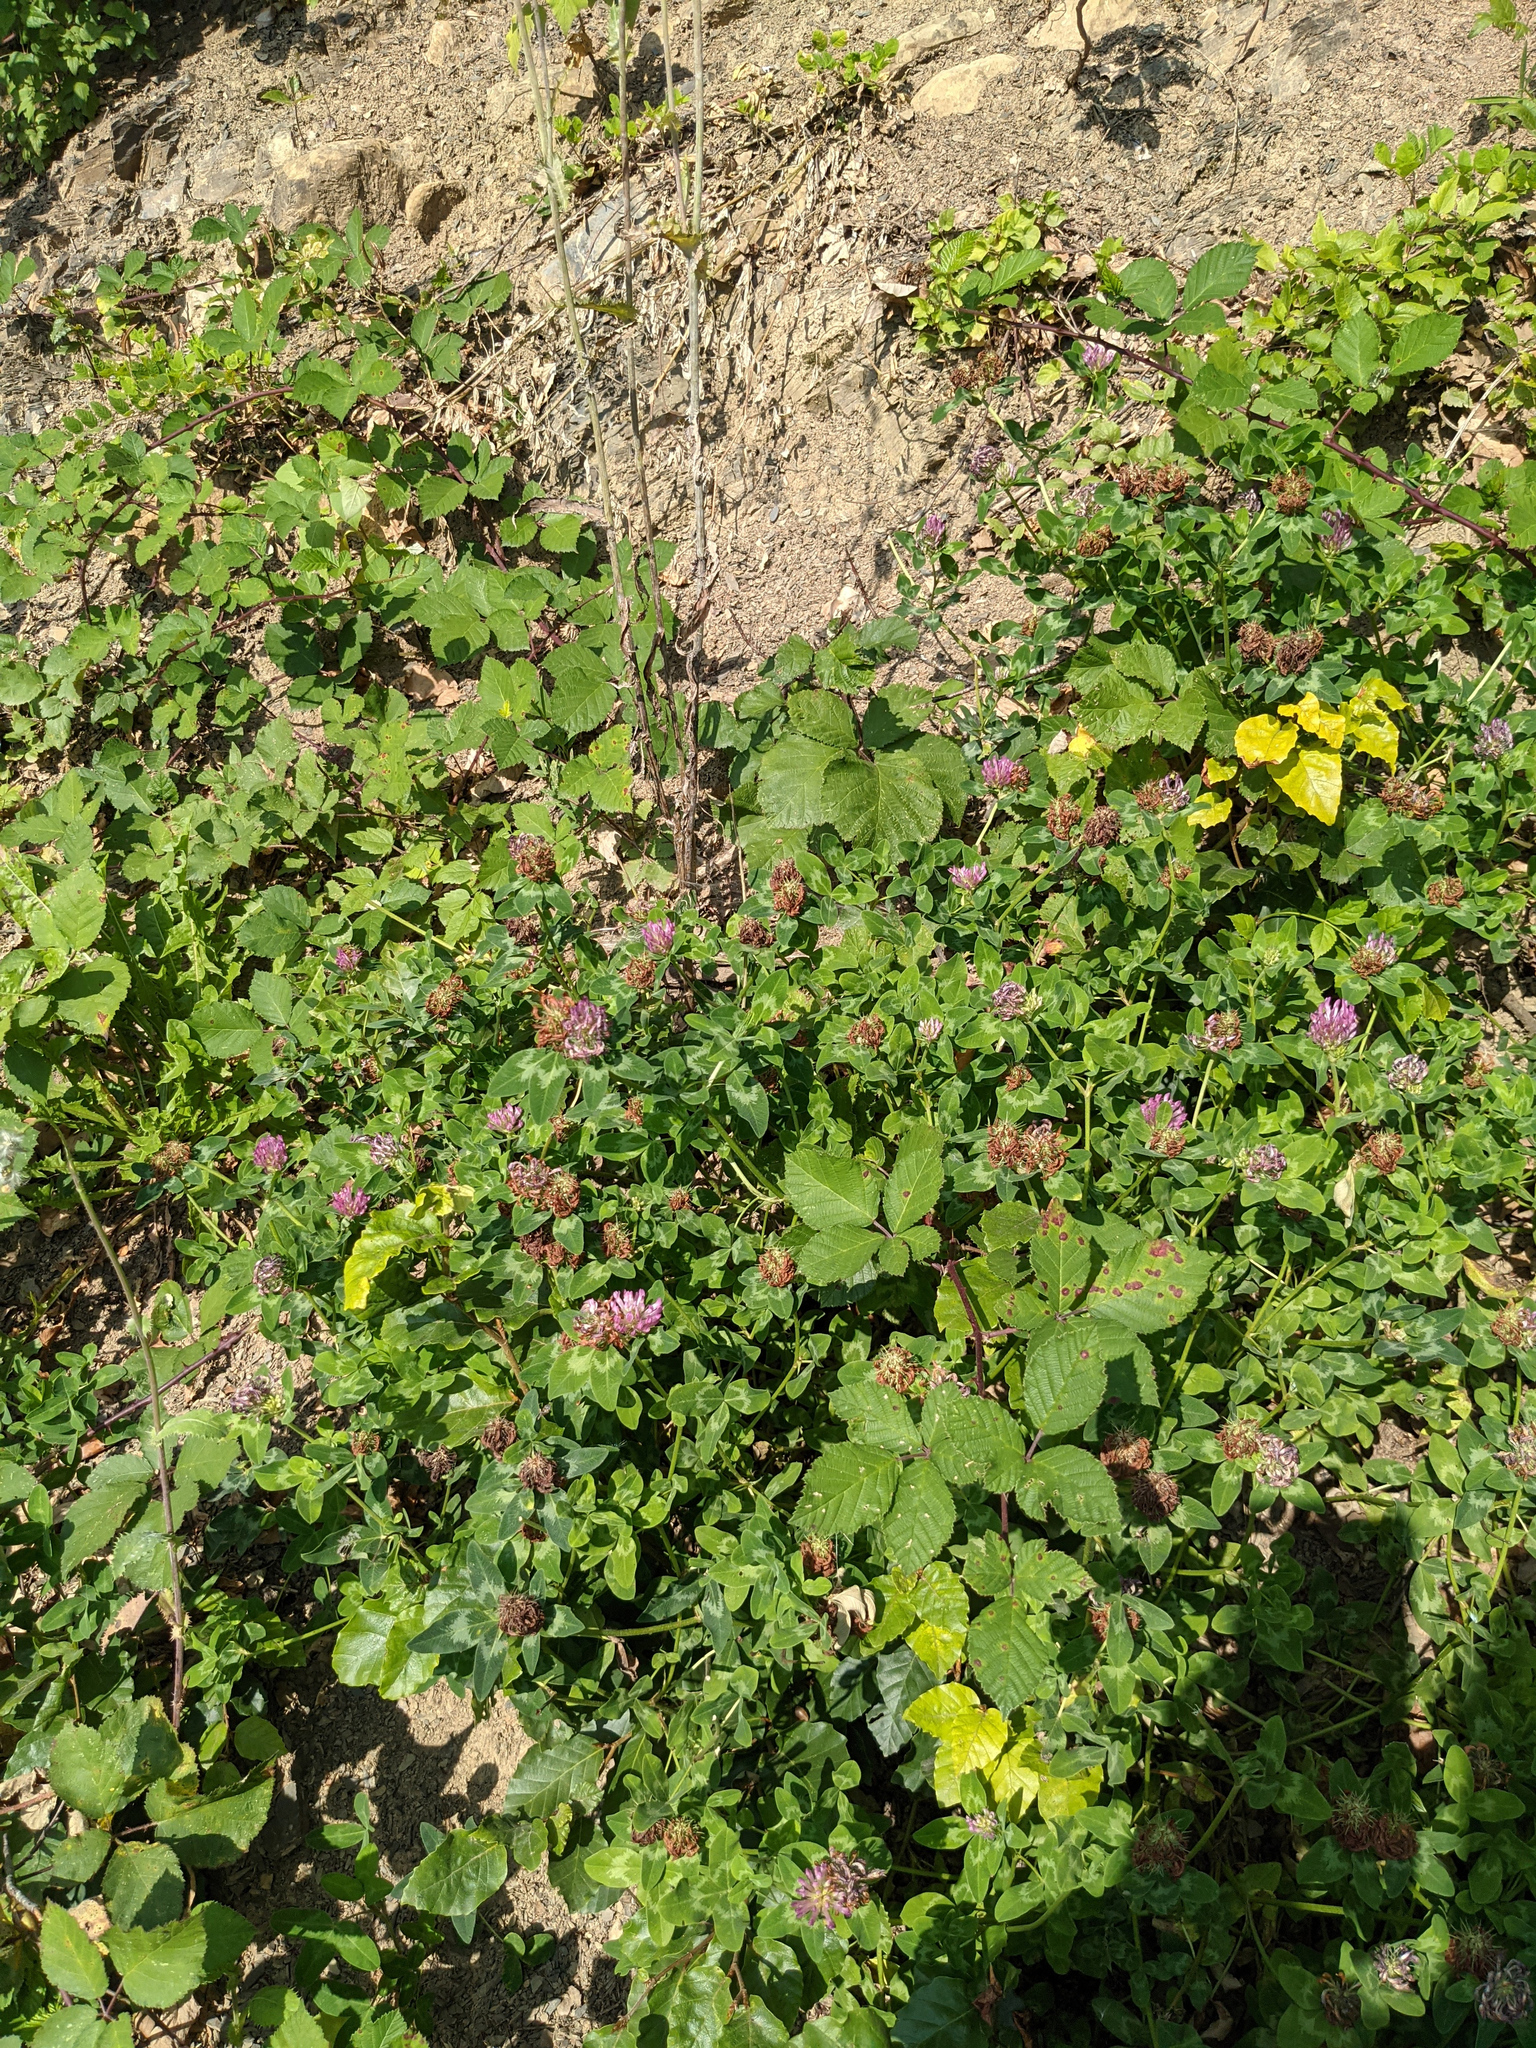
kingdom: Plantae
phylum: Tracheophyta
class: Magnoliopsida
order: Fabales
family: Fabaceae
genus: Trifolium
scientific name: Trifolium pratense
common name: Red clover
